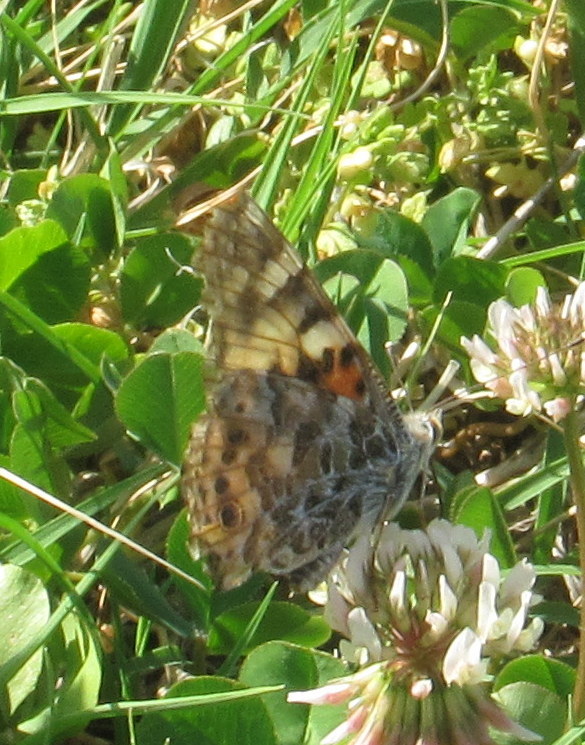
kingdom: Animalia
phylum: Arthropoda
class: Insecta
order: Lepidoptera
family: Nymphalidae
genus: Vanessa
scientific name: Vanessa cardui
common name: Painted lady
